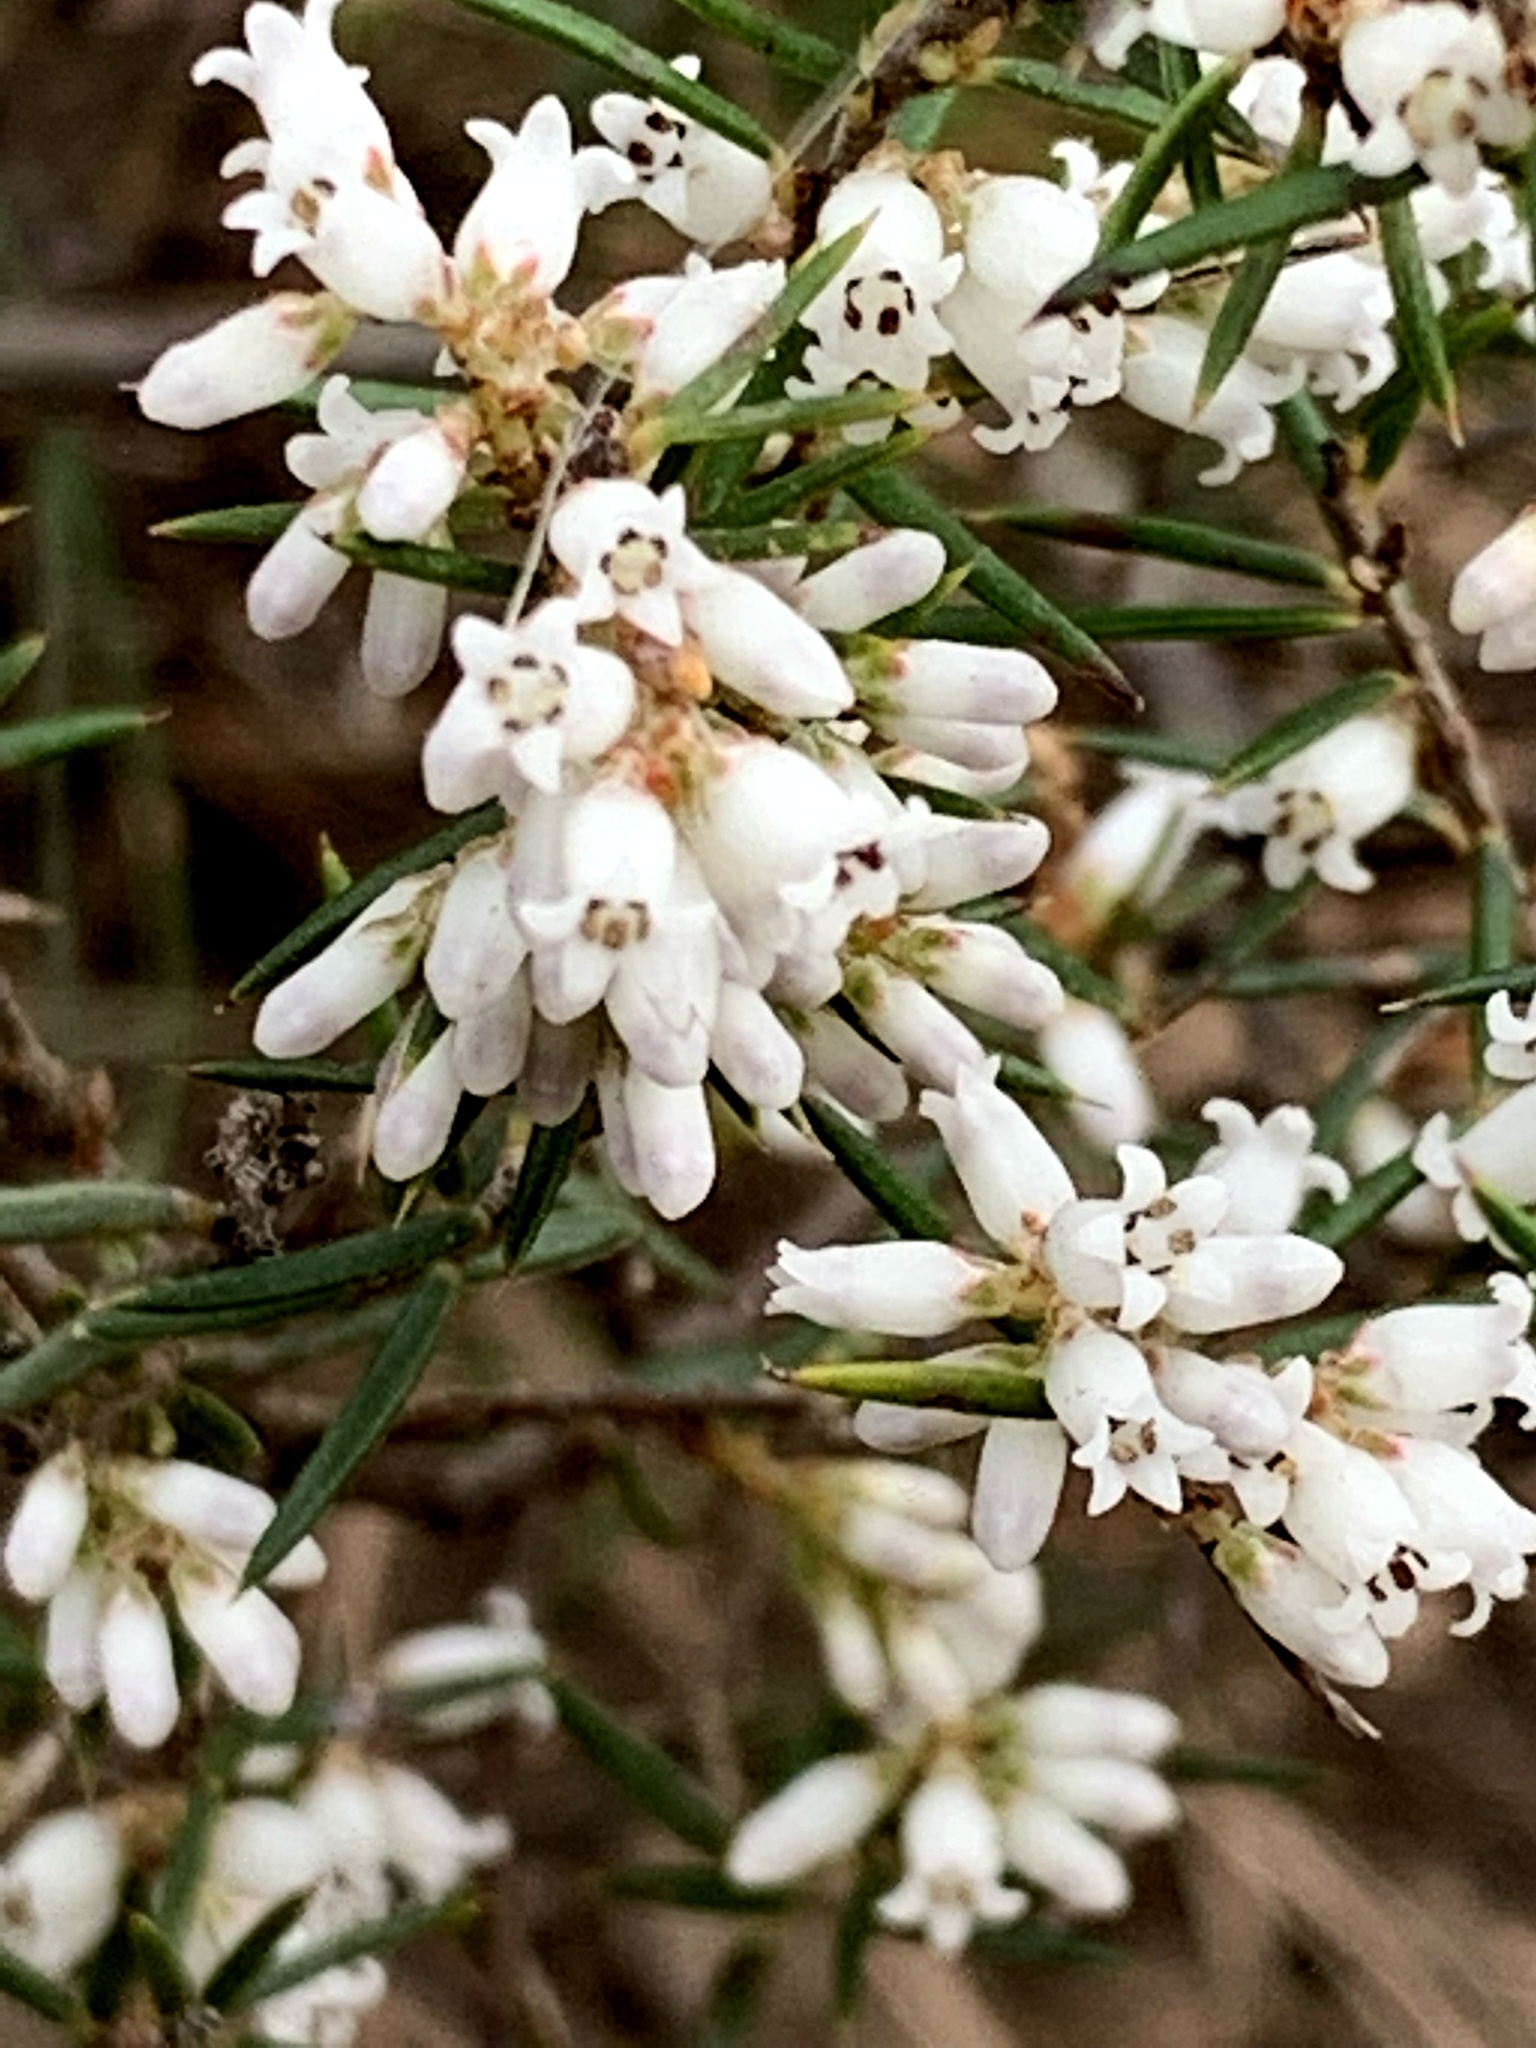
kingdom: Plantae
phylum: Tracheophyta
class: Magnoliopsida
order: Ericales
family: Ericaceae
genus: Lissanthe
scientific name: Lissanthe strigosa
